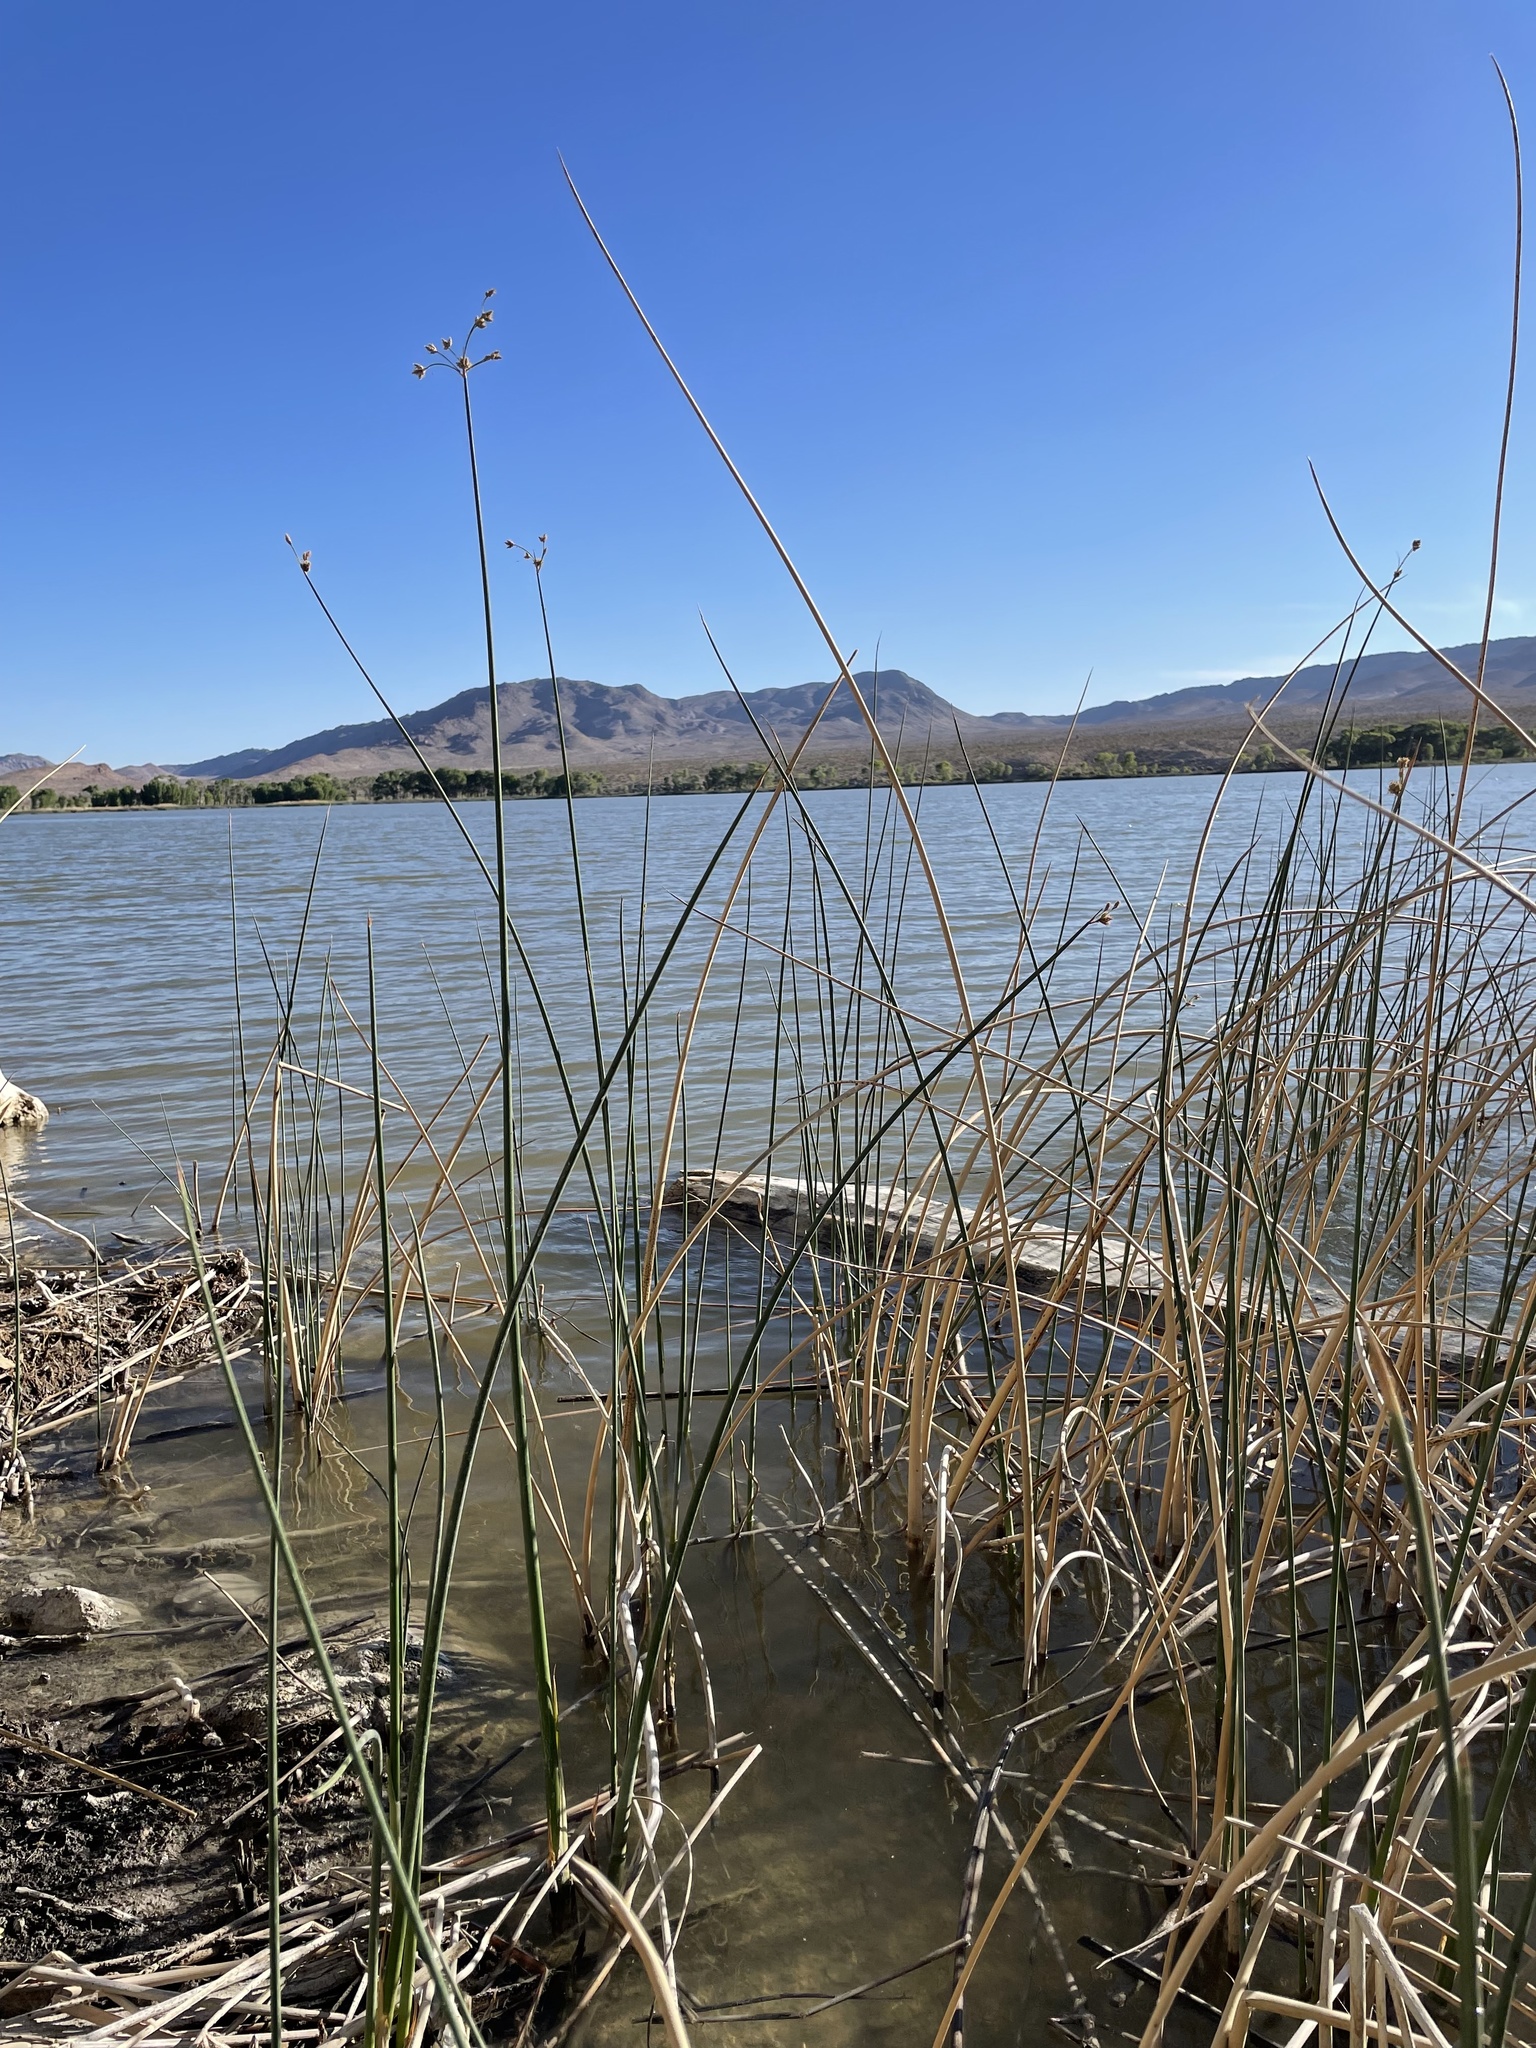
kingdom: Plantae
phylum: Tracheophyta
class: Liliopsida
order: Poales
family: Cyperaceae
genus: Schoenoplectus
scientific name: Schoenoplectus acutus
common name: Hardstem bulrush
